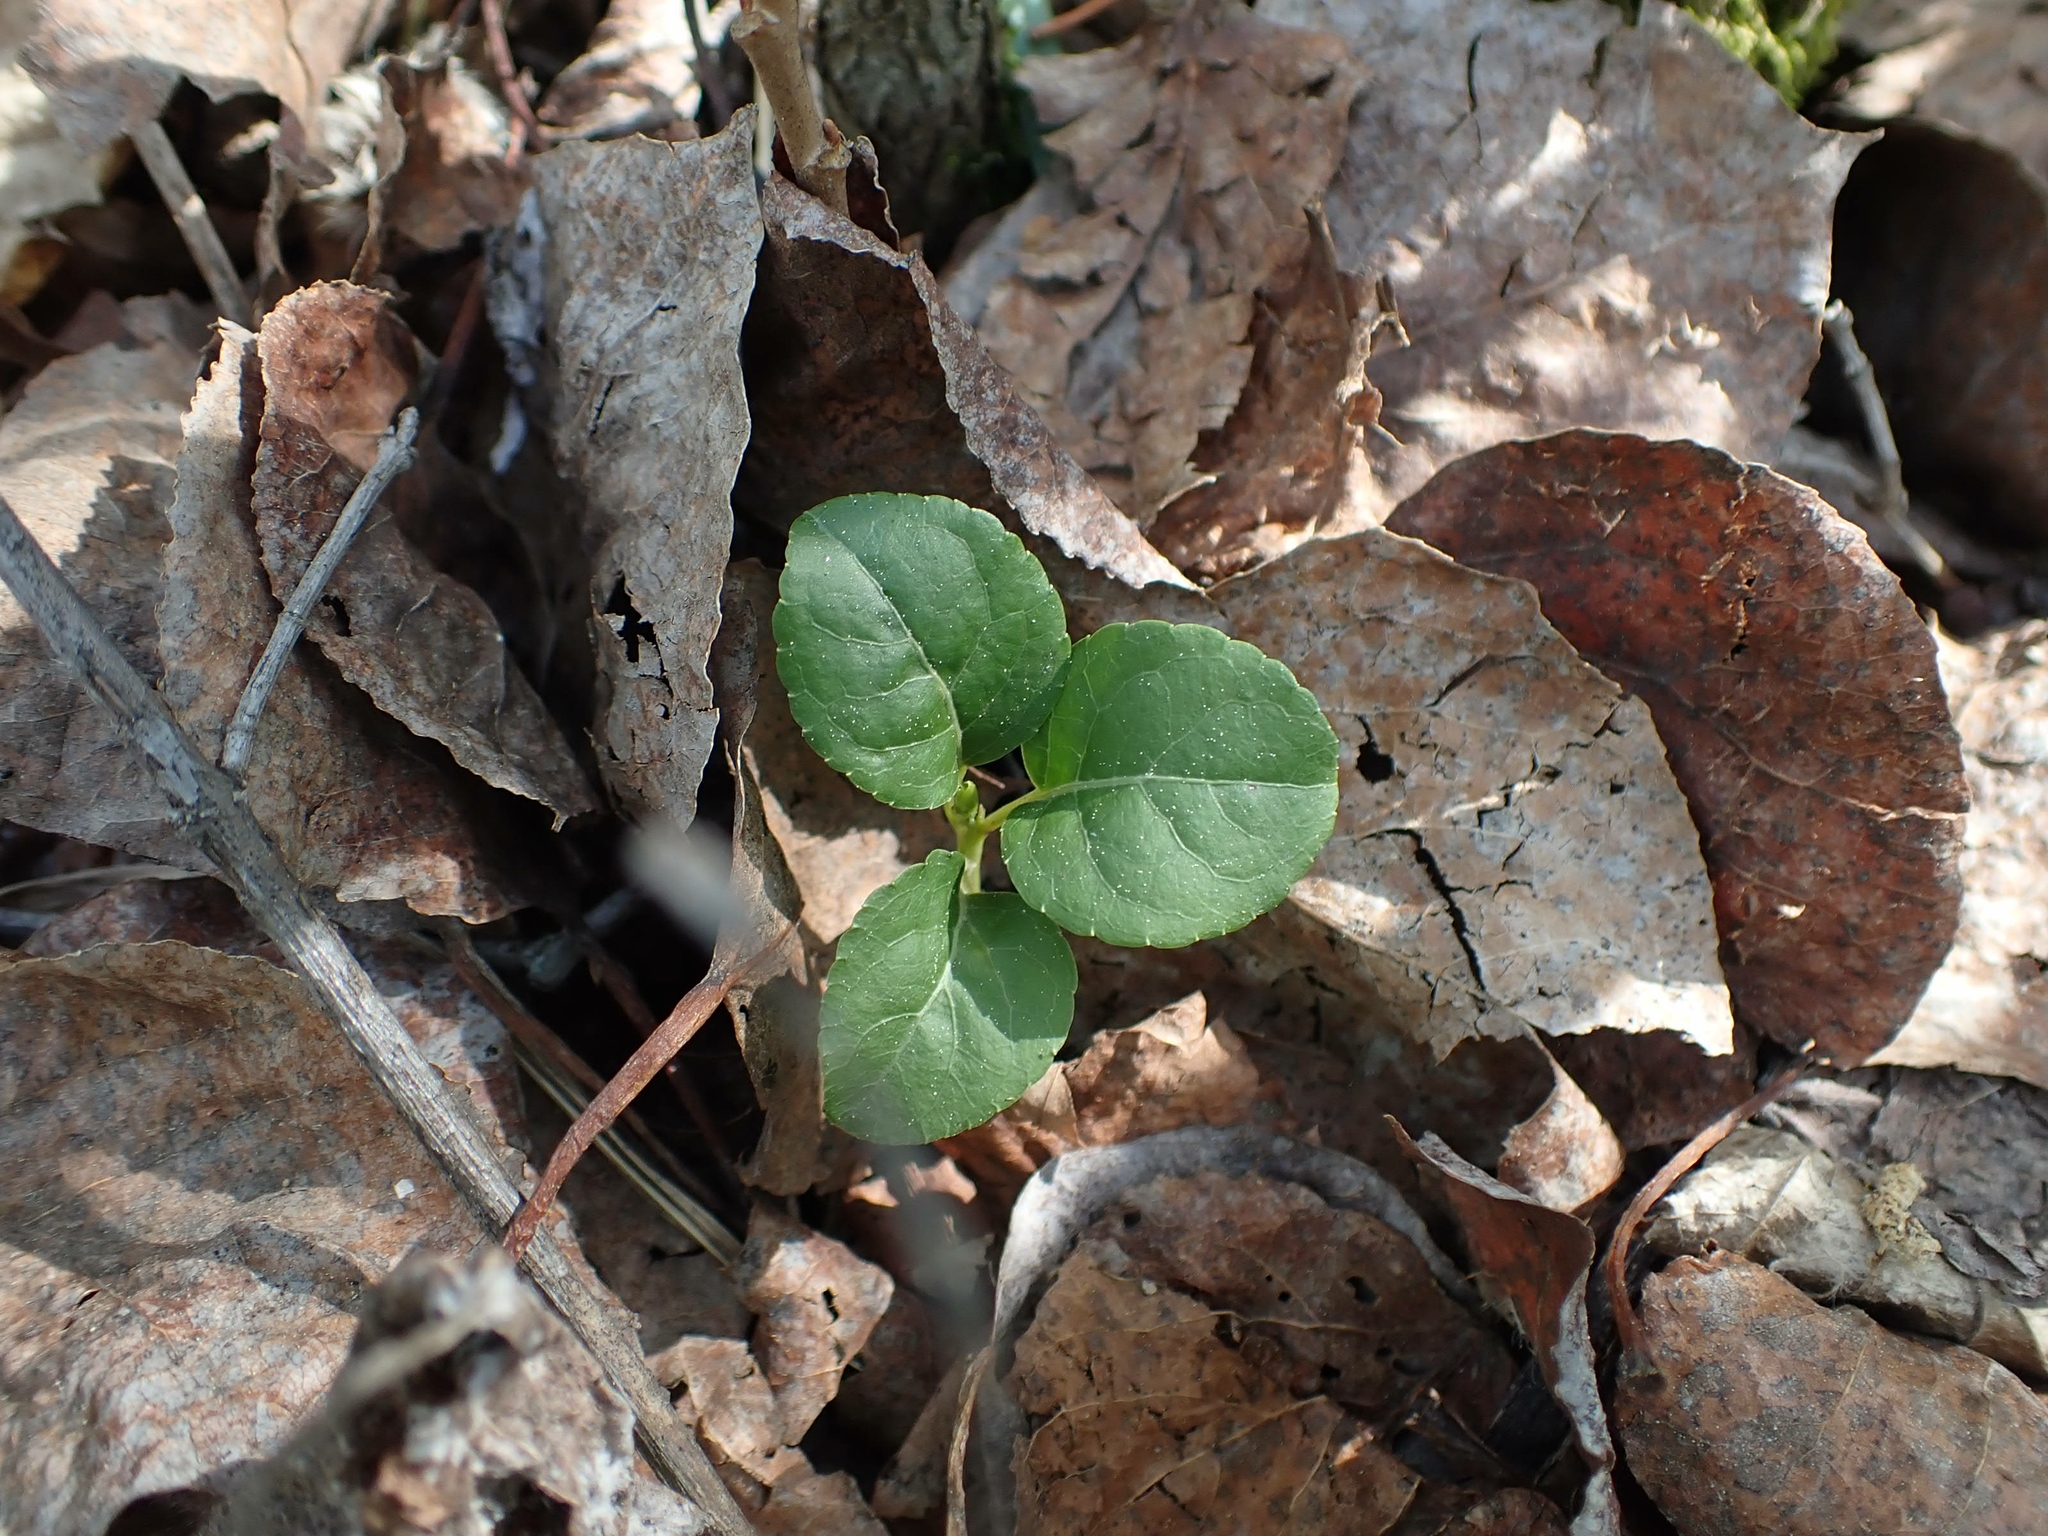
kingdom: Plantae
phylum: Tracheophyta
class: Magnoliopsida
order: Ericales
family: Ericaceae
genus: Orthilia
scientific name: Orthilia secunda
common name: One-sided orthilia
